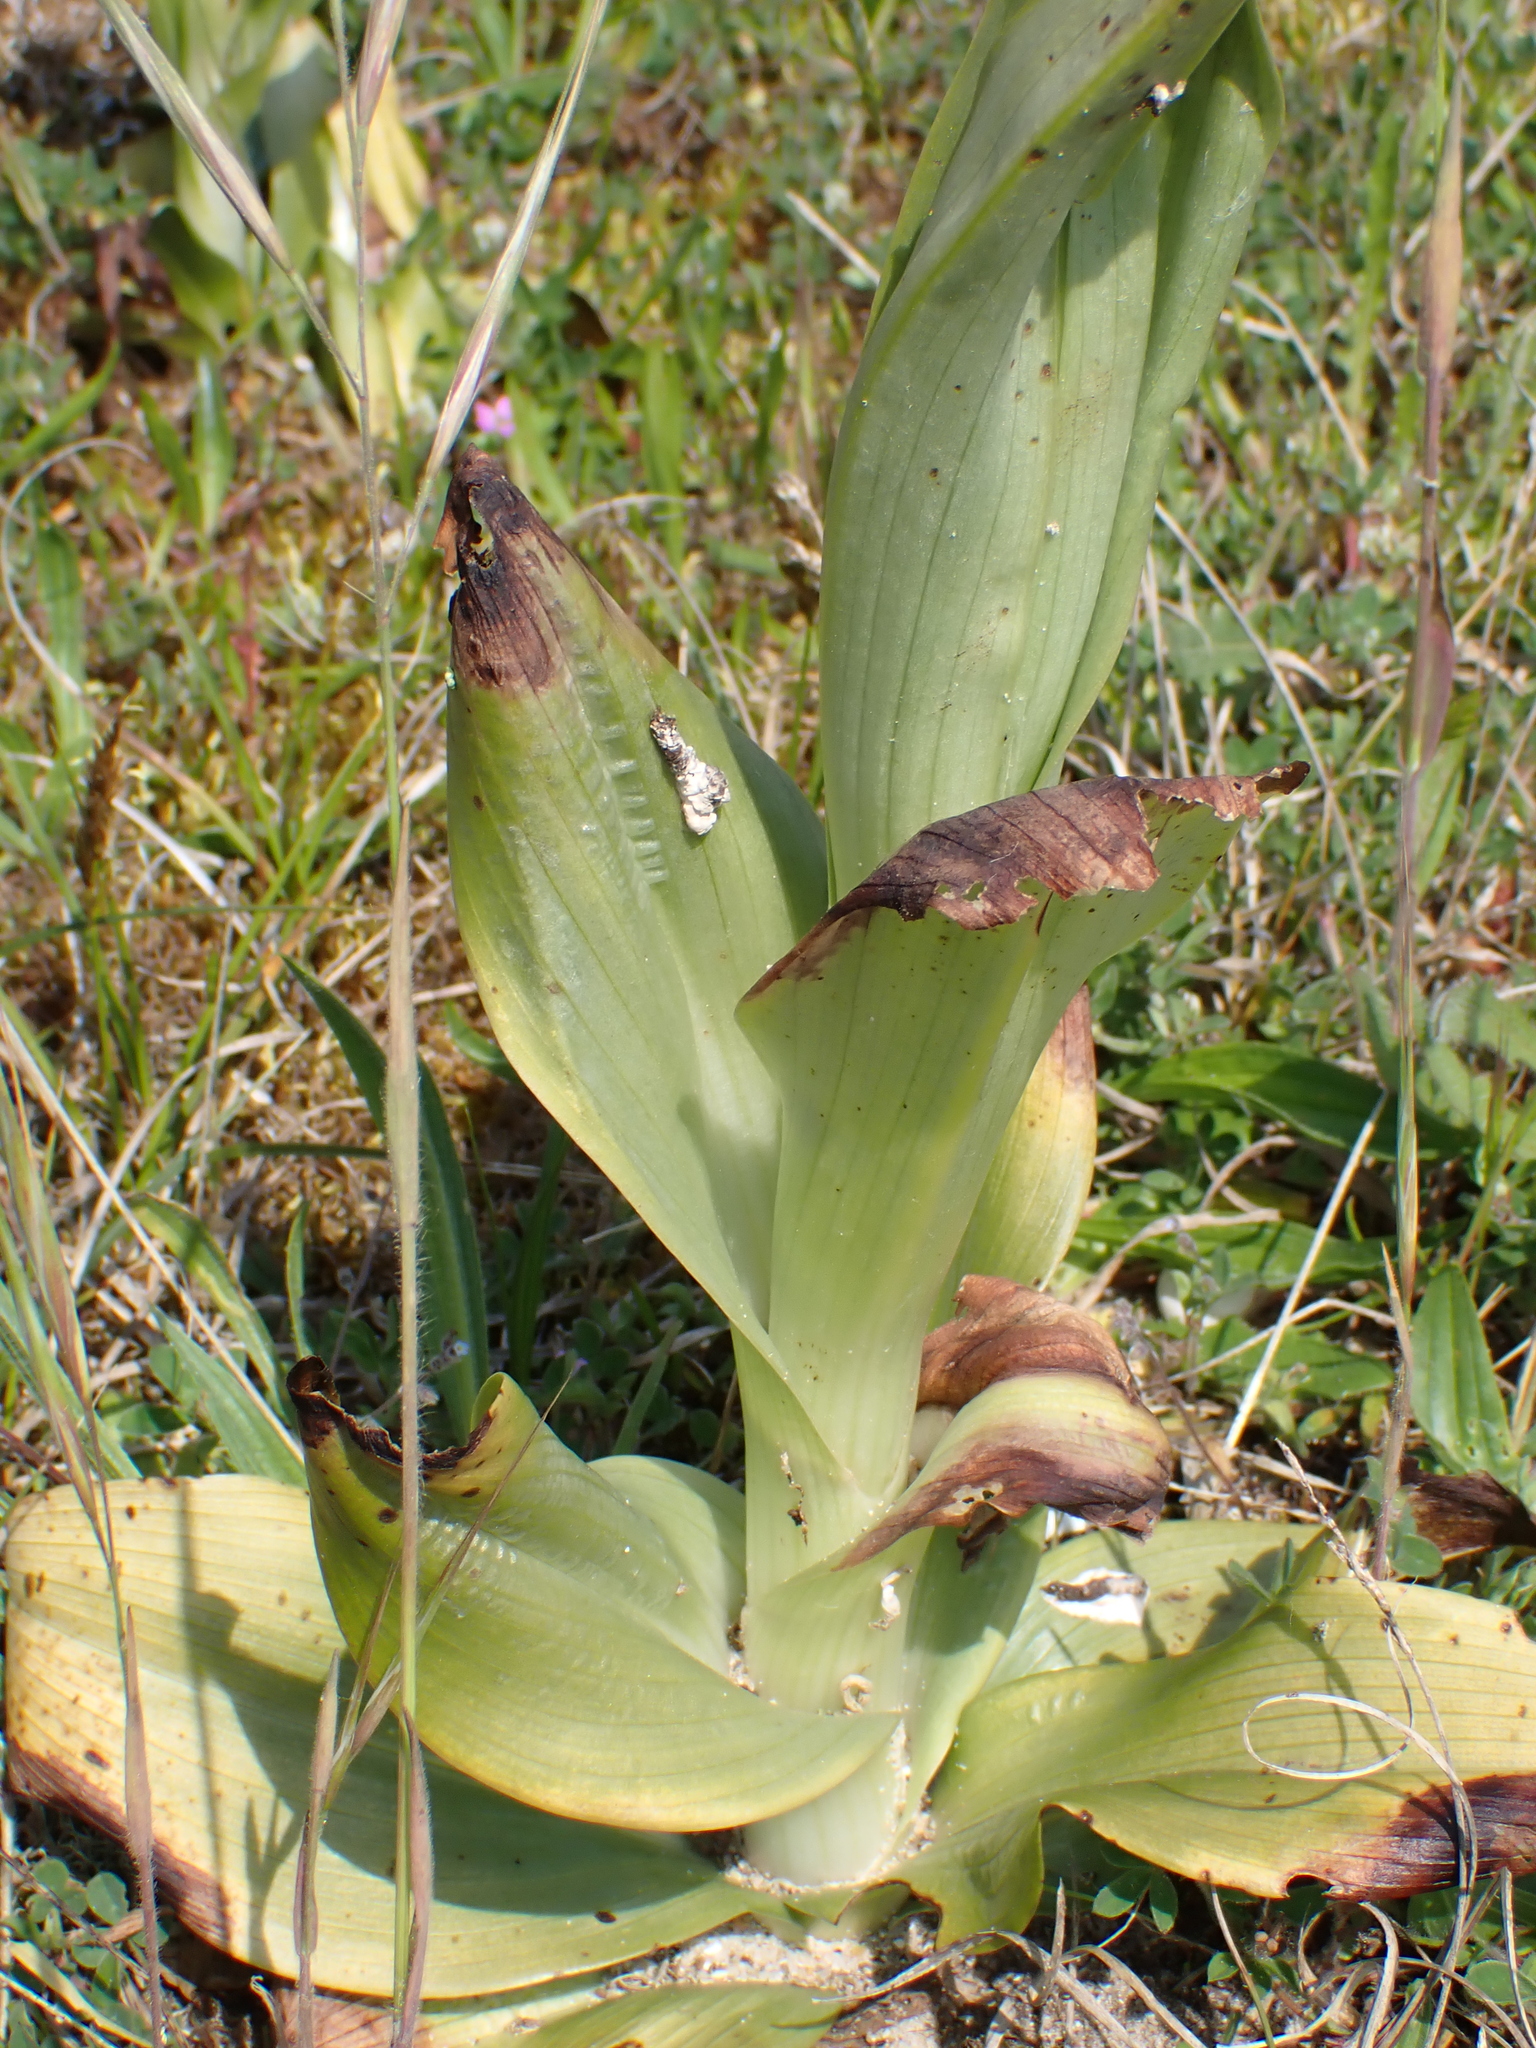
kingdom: Plantae
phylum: Tracheophyta
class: Liliopsida
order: Asparagales
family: Orchidaceae
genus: Himantoglossum
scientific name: Himantoglossum hircinum
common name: Lizard orchid
